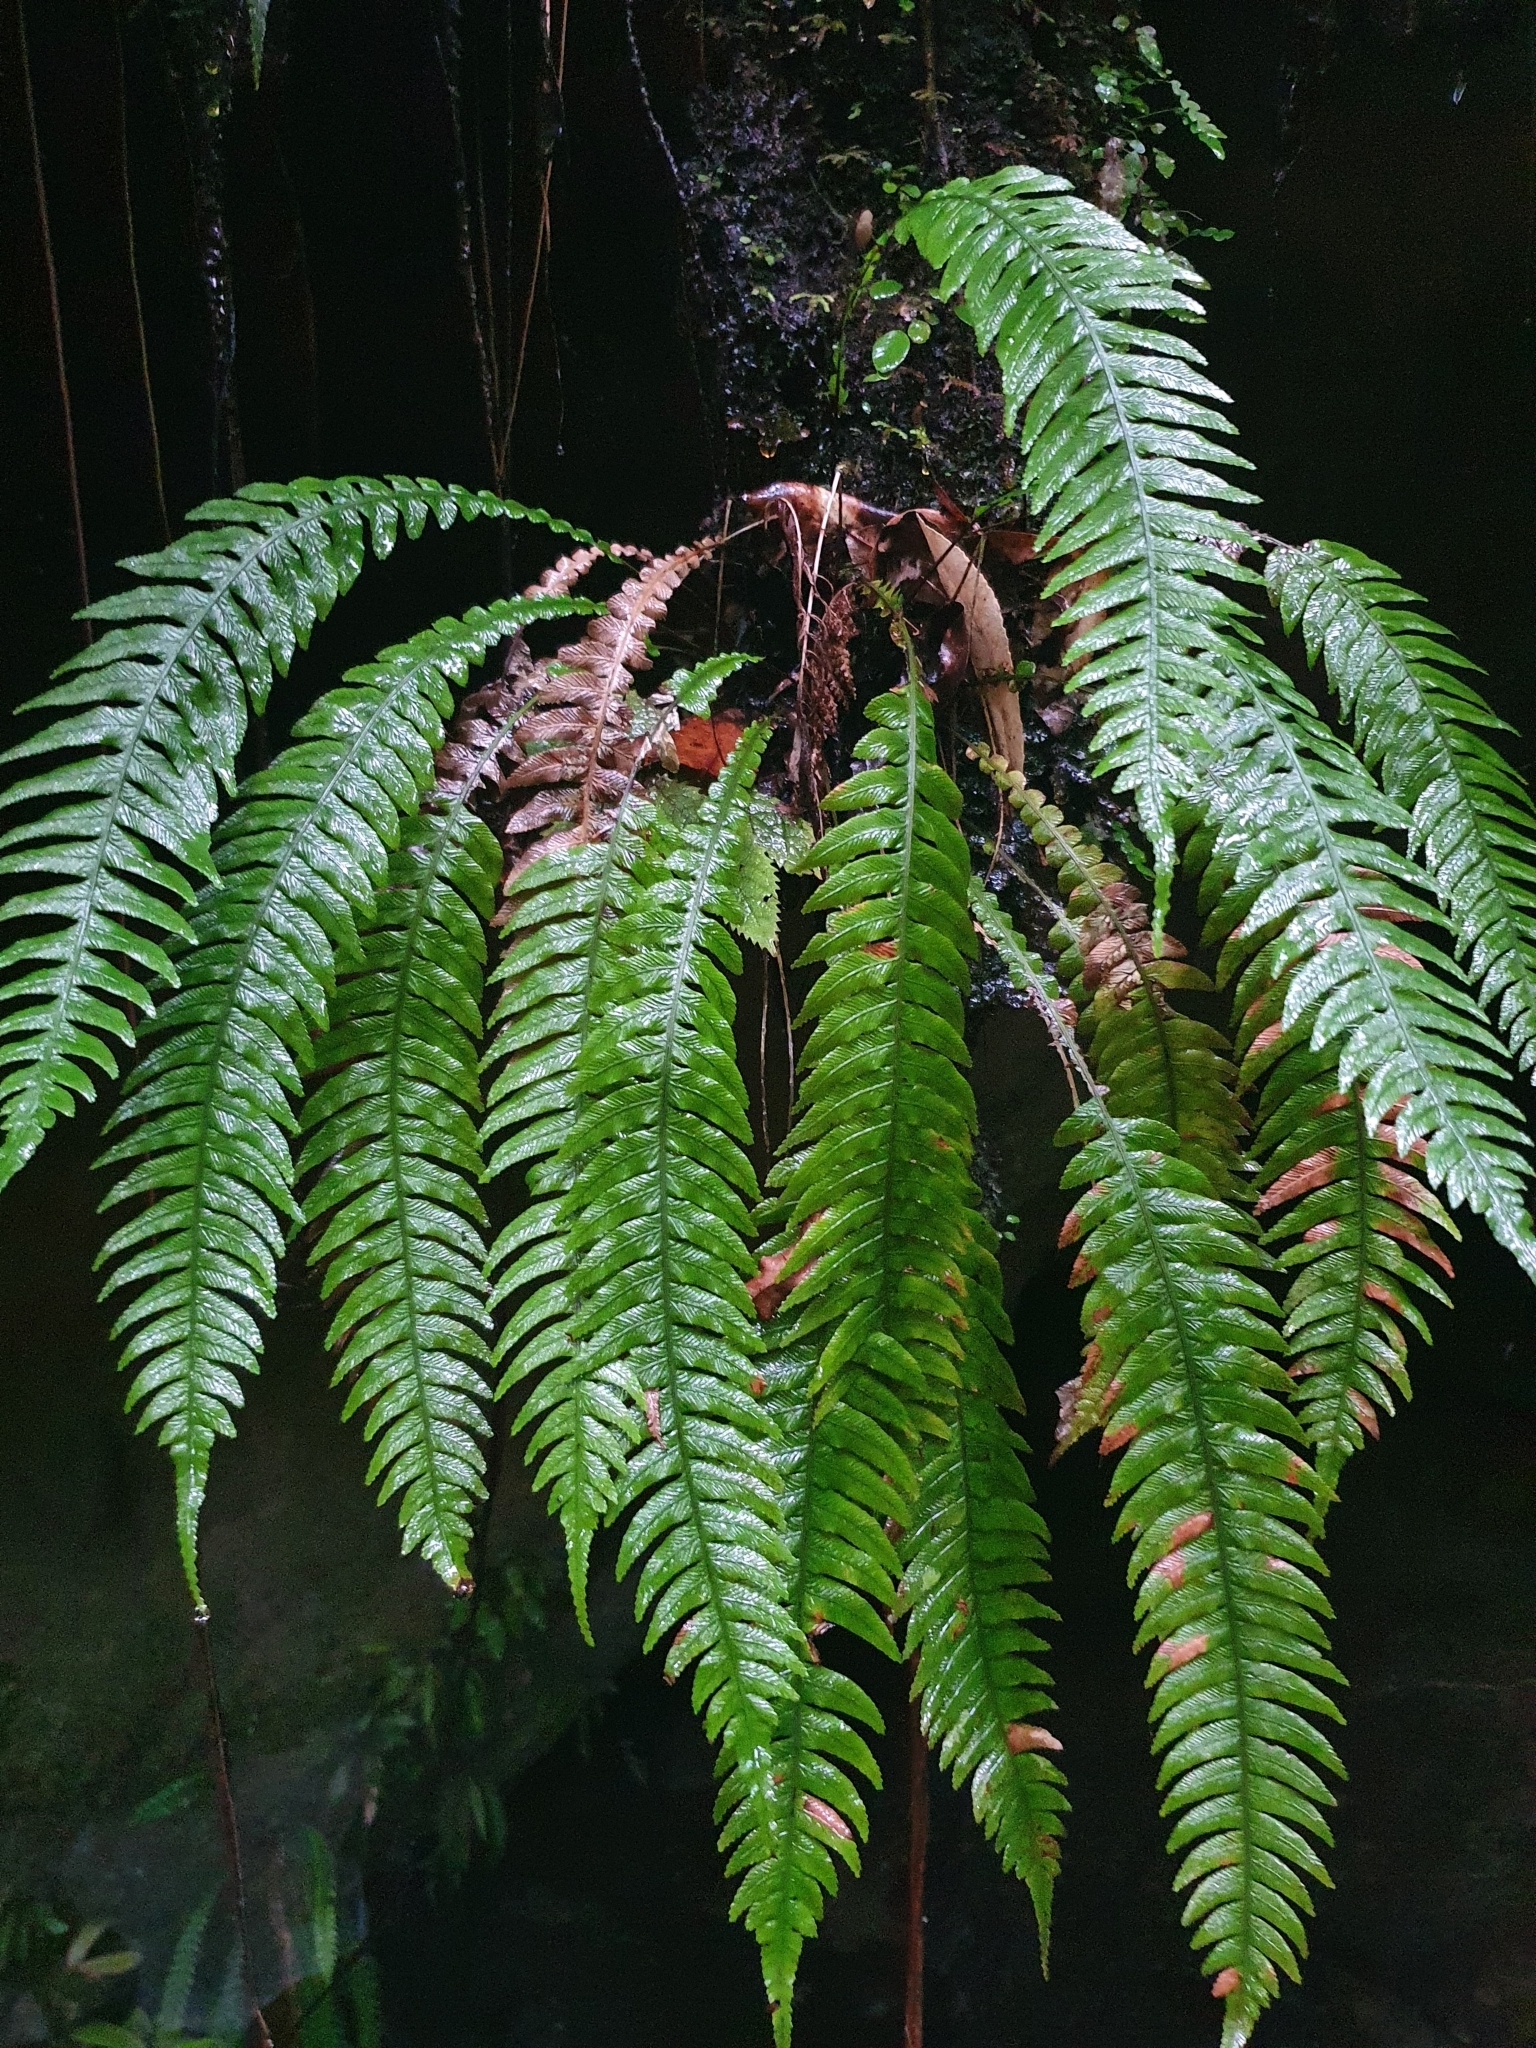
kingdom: Plantae
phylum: Tracheophyta
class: Polypodiopsida
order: Polypodiales
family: Blechnaceae
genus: Austroblechnum
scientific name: Austroblechnum lanceolatum
